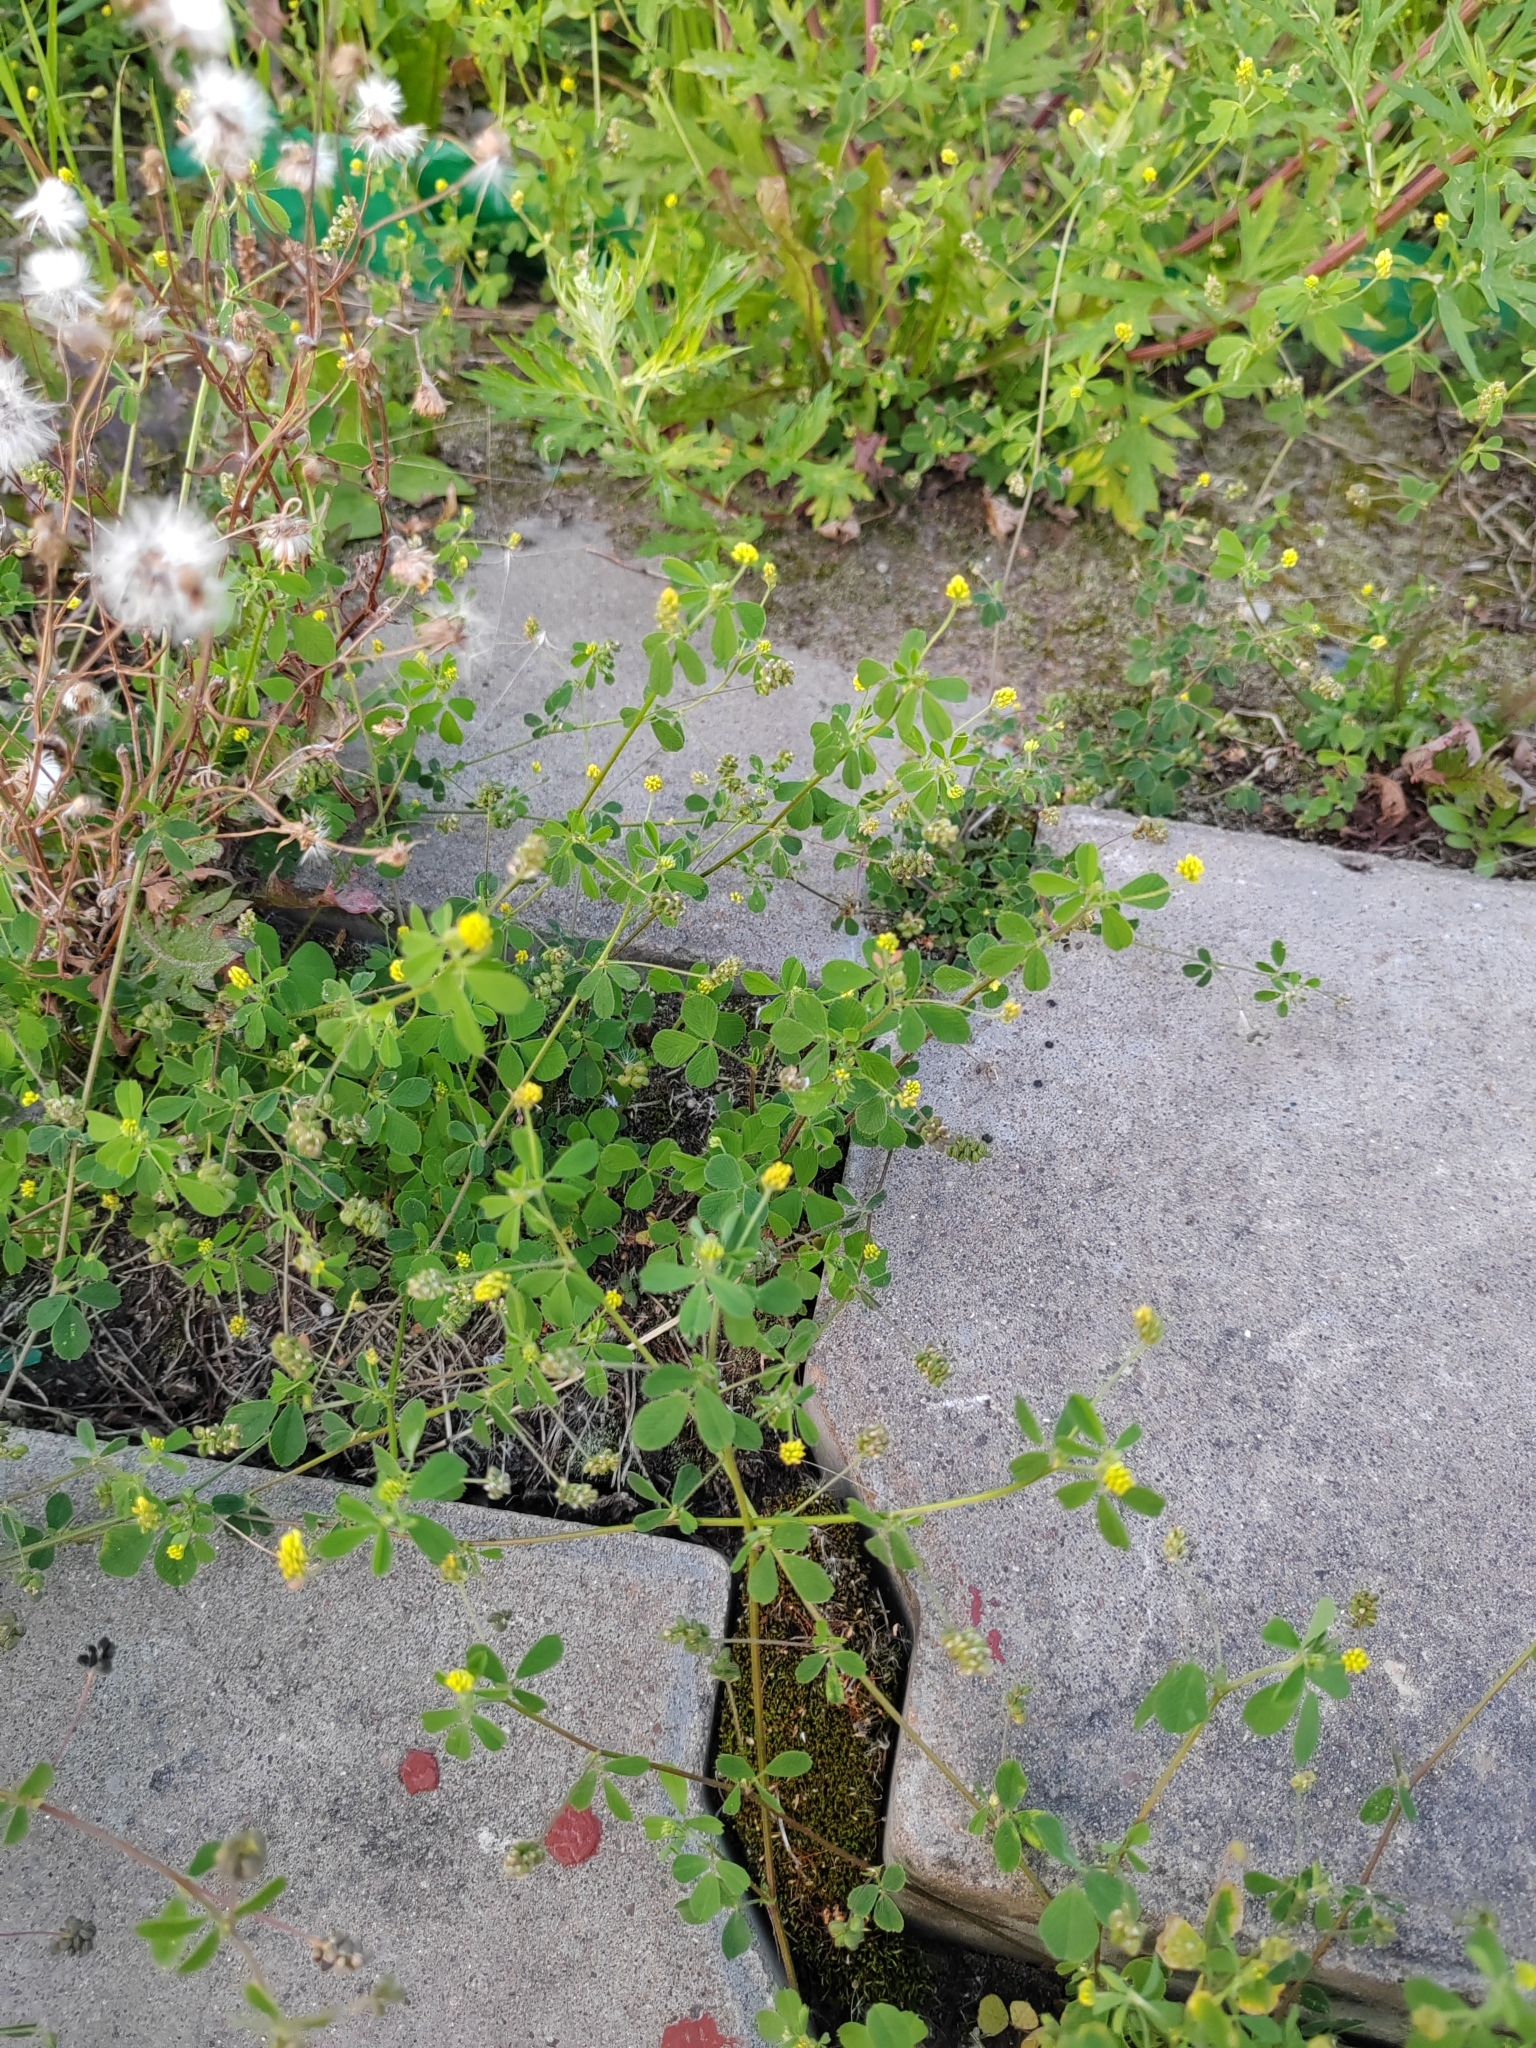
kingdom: Plantae
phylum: Tracheophyta
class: Magnoliopsida
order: Fabales
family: Fabaceae
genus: Medicago
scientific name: Medicago lupulina
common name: Black medick
